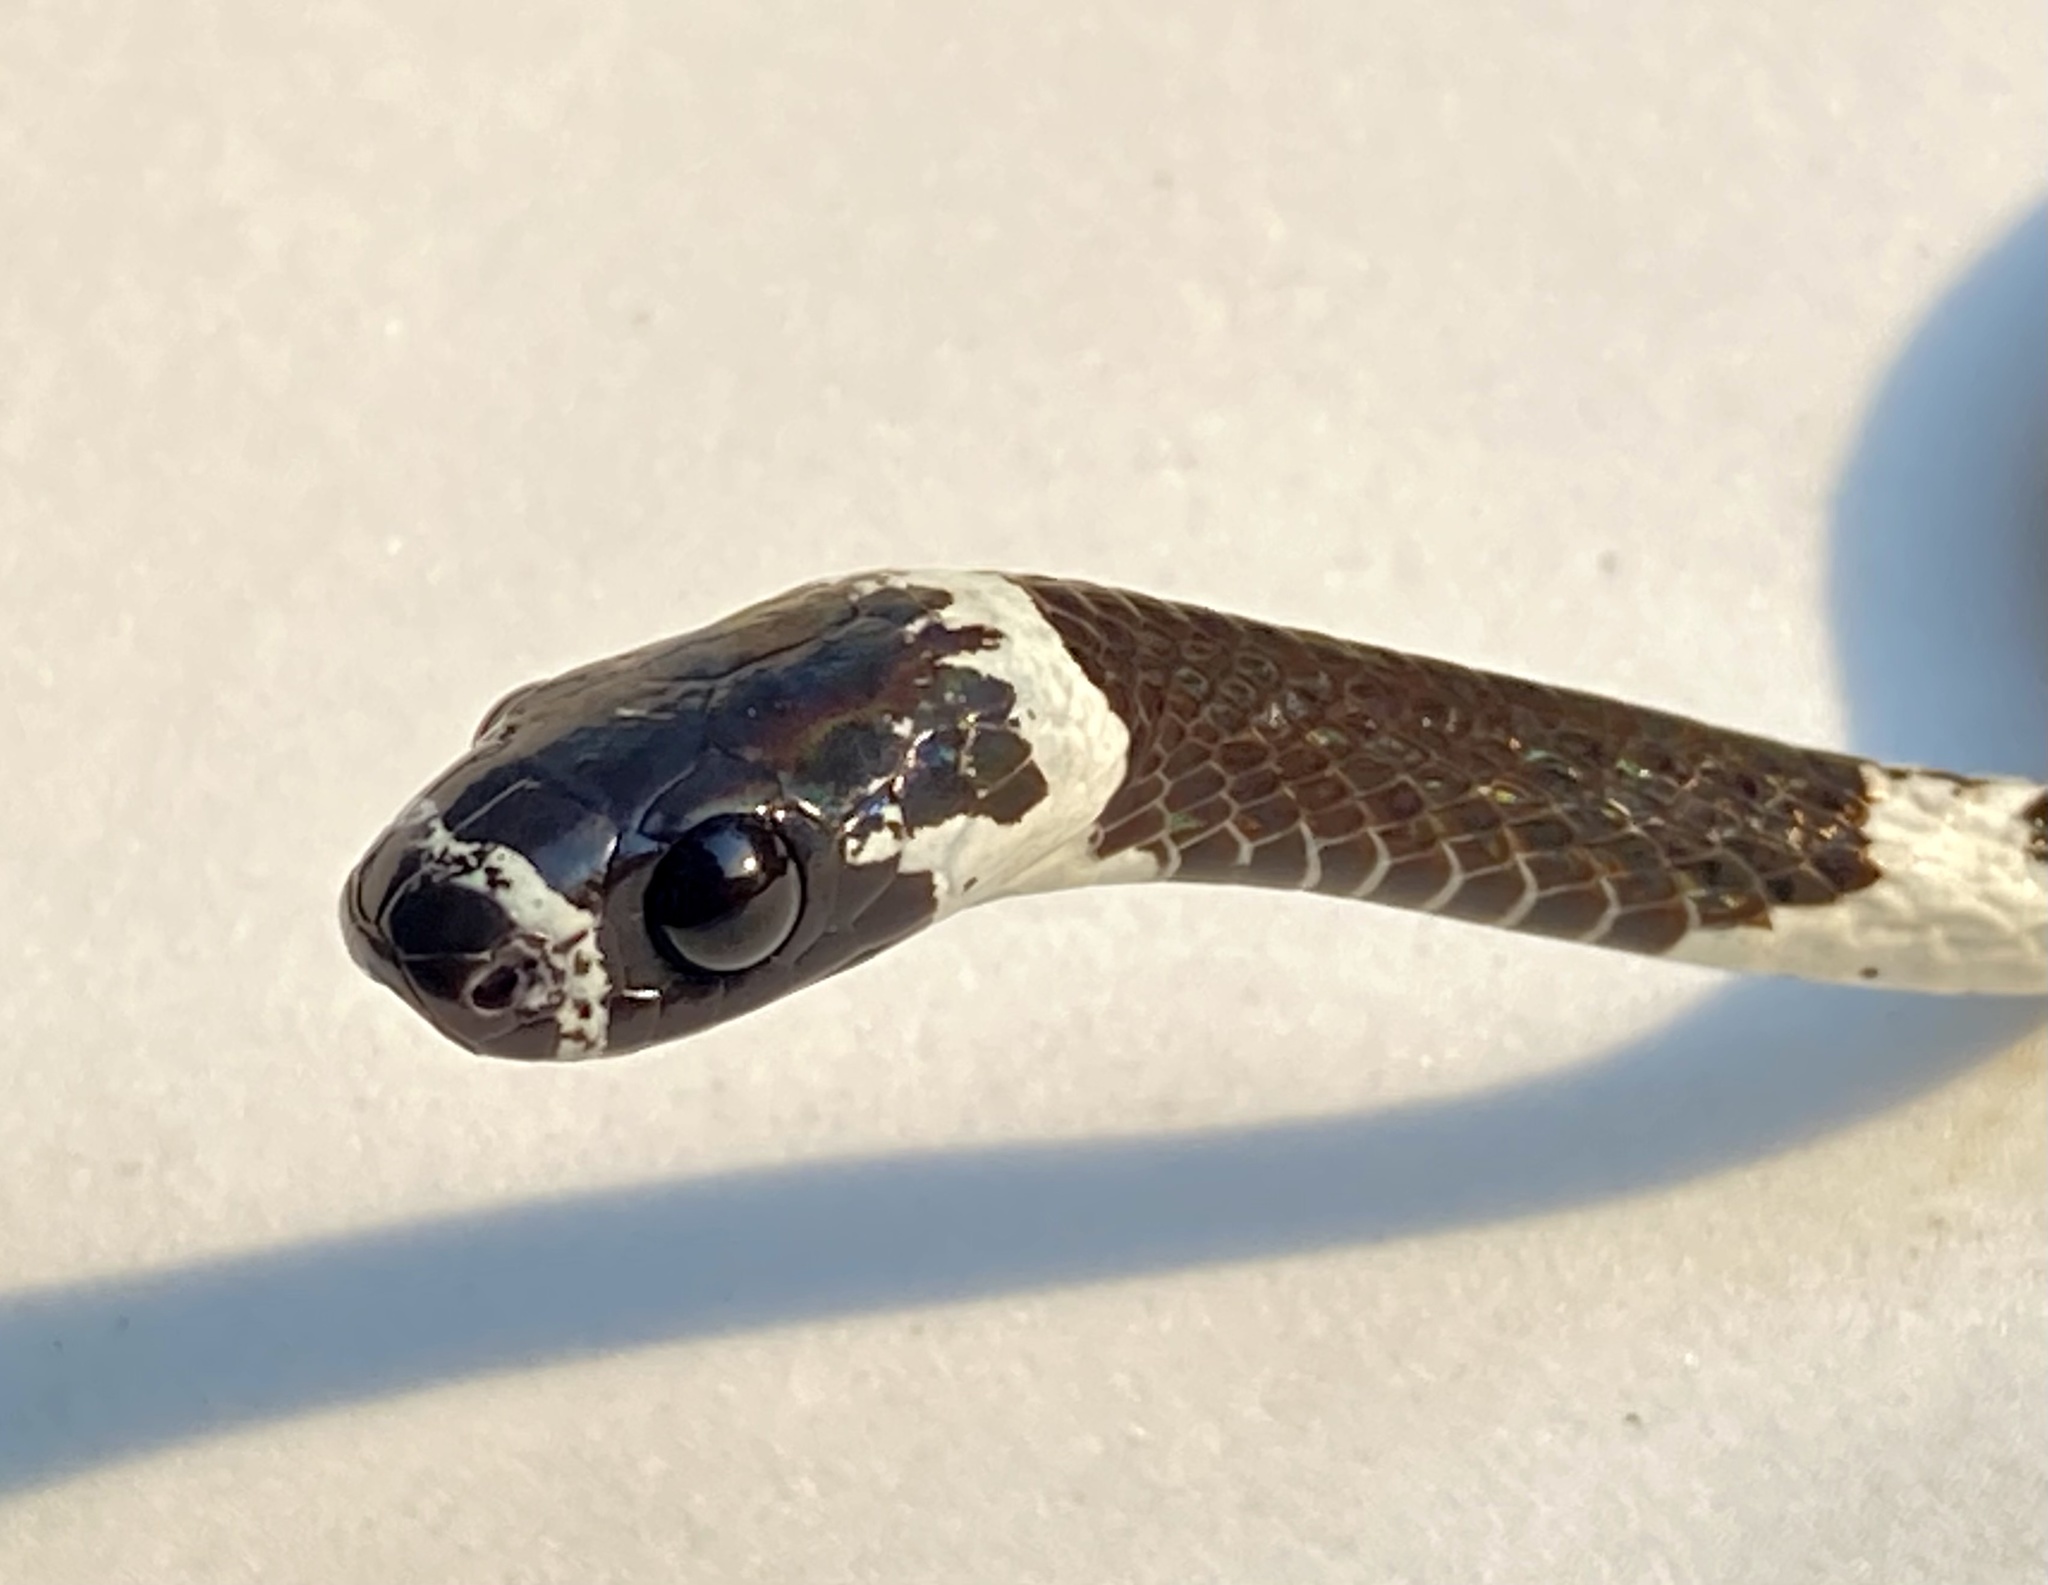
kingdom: Animalia
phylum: Chordata
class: Squamata
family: Colubridae
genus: Dipsas
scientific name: Dipsas catesbyi
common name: Catesby's snail-eater
